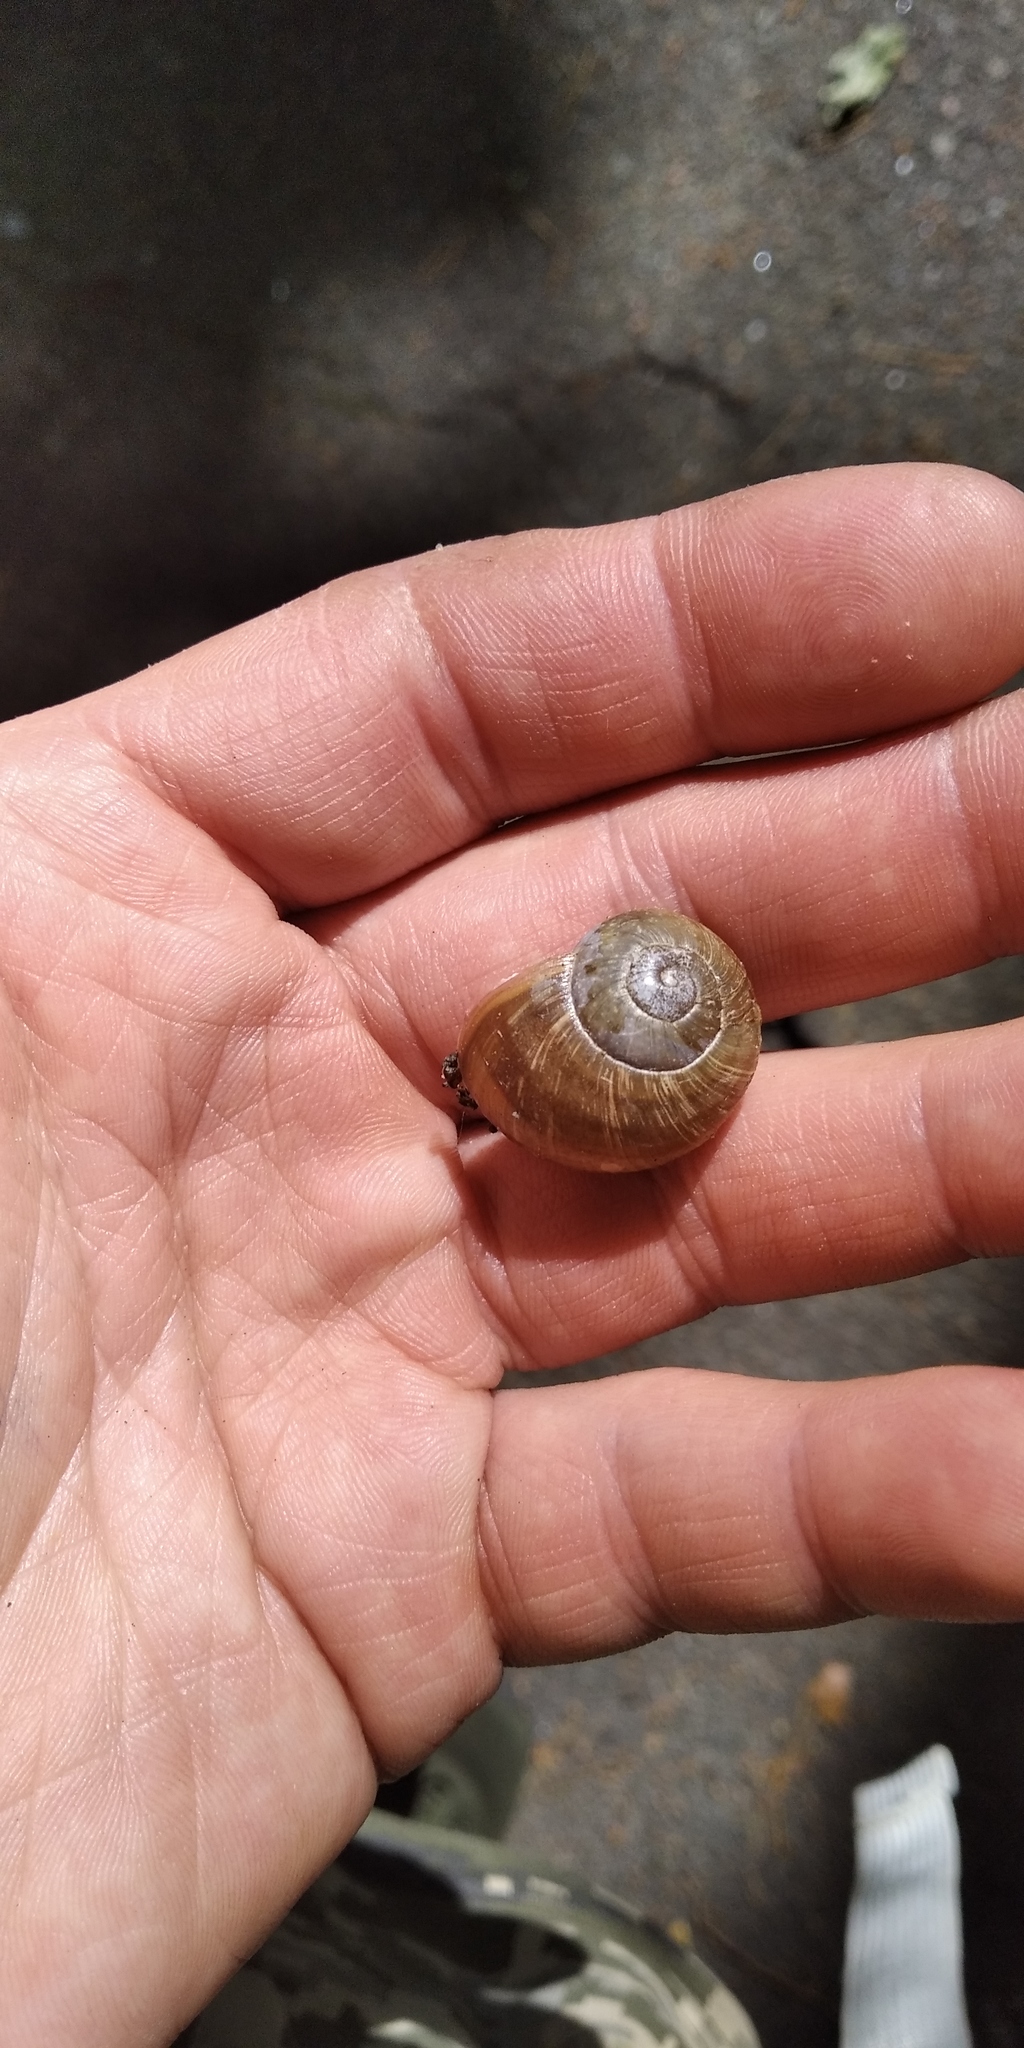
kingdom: Animalia
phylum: Mollusca
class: Gastropoda
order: Stylommatophora
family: Helicidae
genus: Helix
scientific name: Helix pomatia
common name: Roman snail
